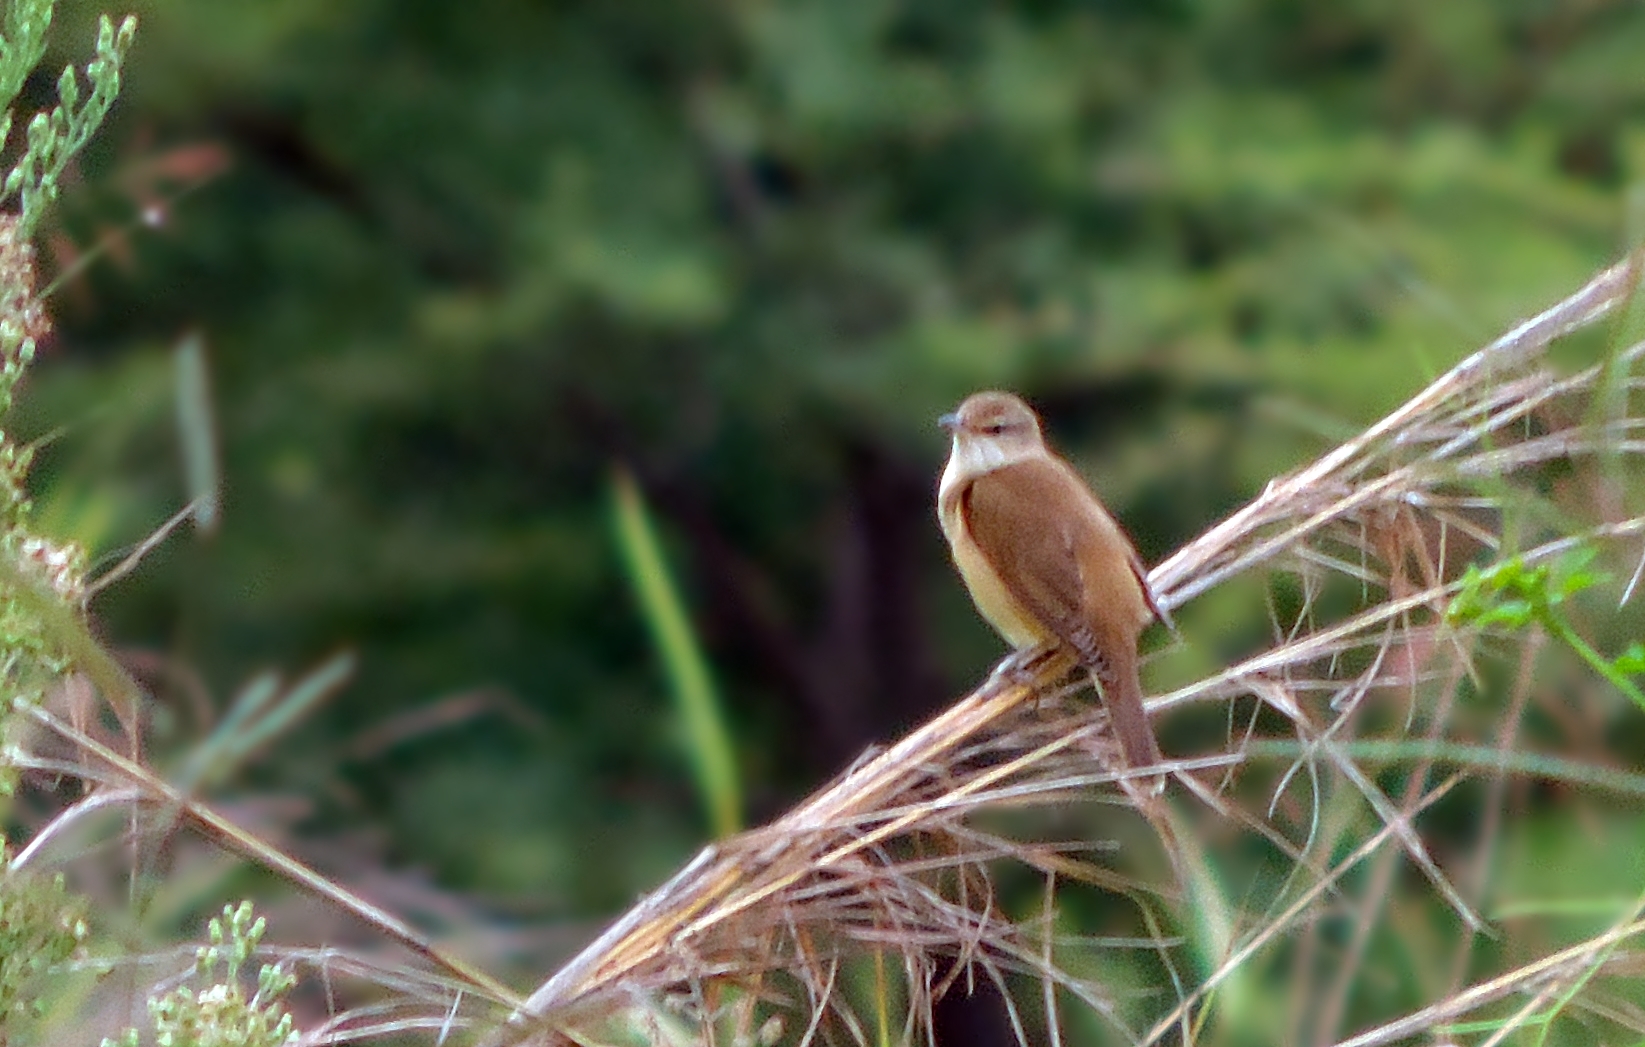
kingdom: Animalia
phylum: Chordata
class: Aves
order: Passeriformes
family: Acrocephalidae
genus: Acrocephalus
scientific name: Acrocephalus arundinaceus
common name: Great reed warbler
